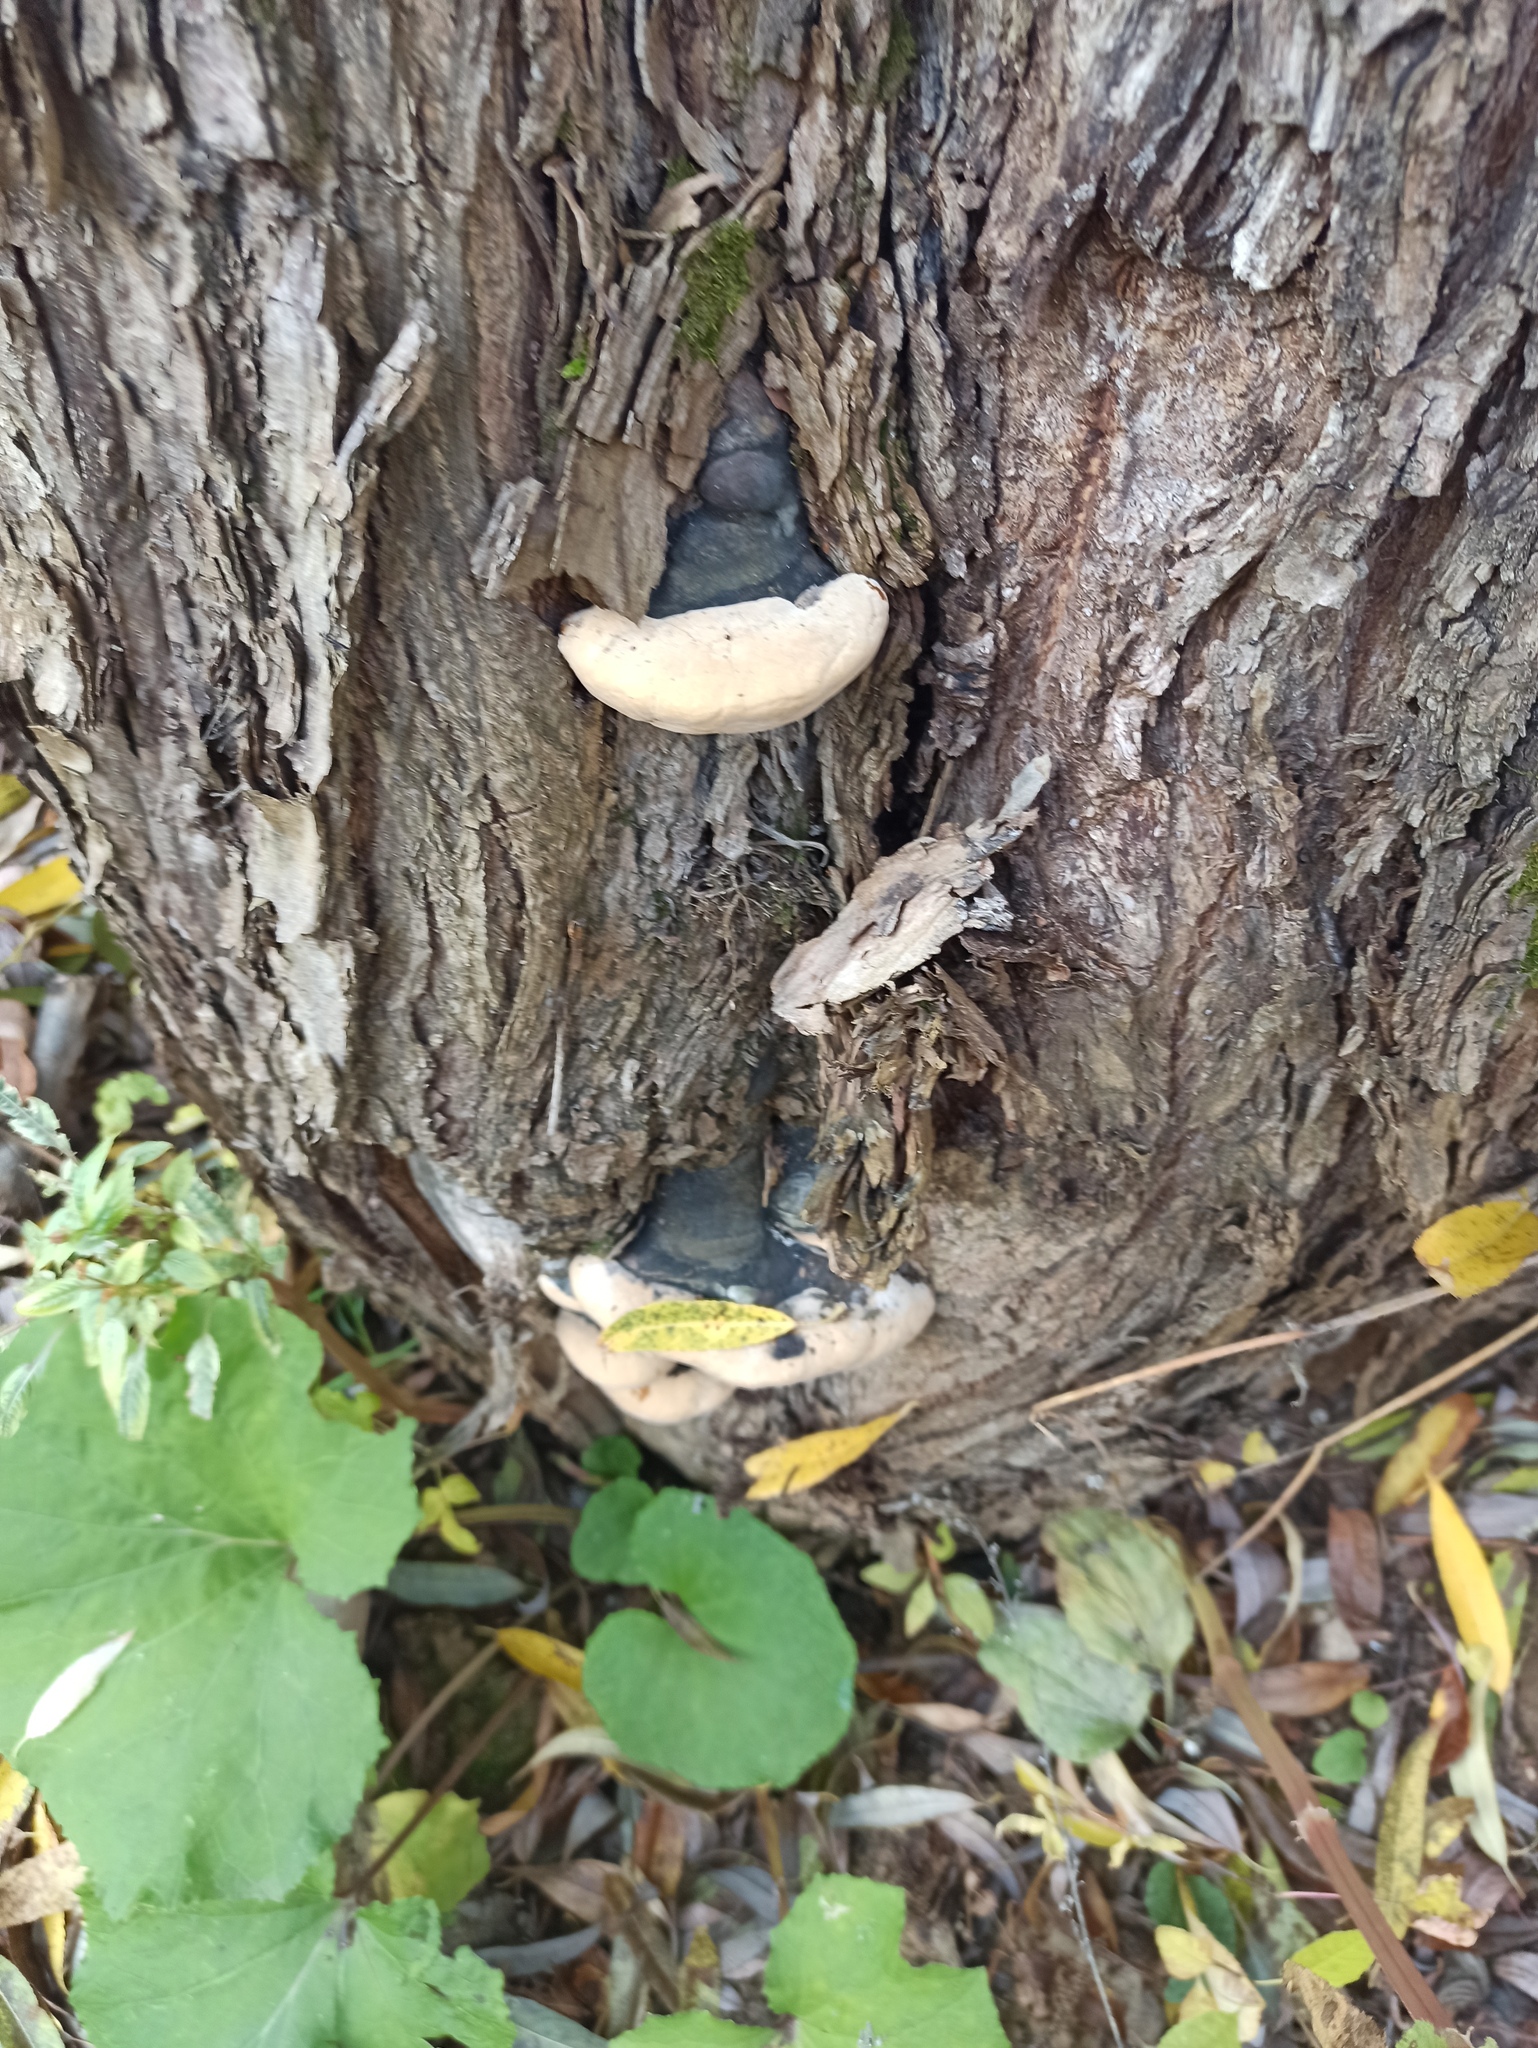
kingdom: Fungi
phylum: Basidiomycota
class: Agaricomycetes
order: Hymenochaetales
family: Hymenochaetaceae
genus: Phellinus
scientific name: Phellinus igniarius
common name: Willow bracket
